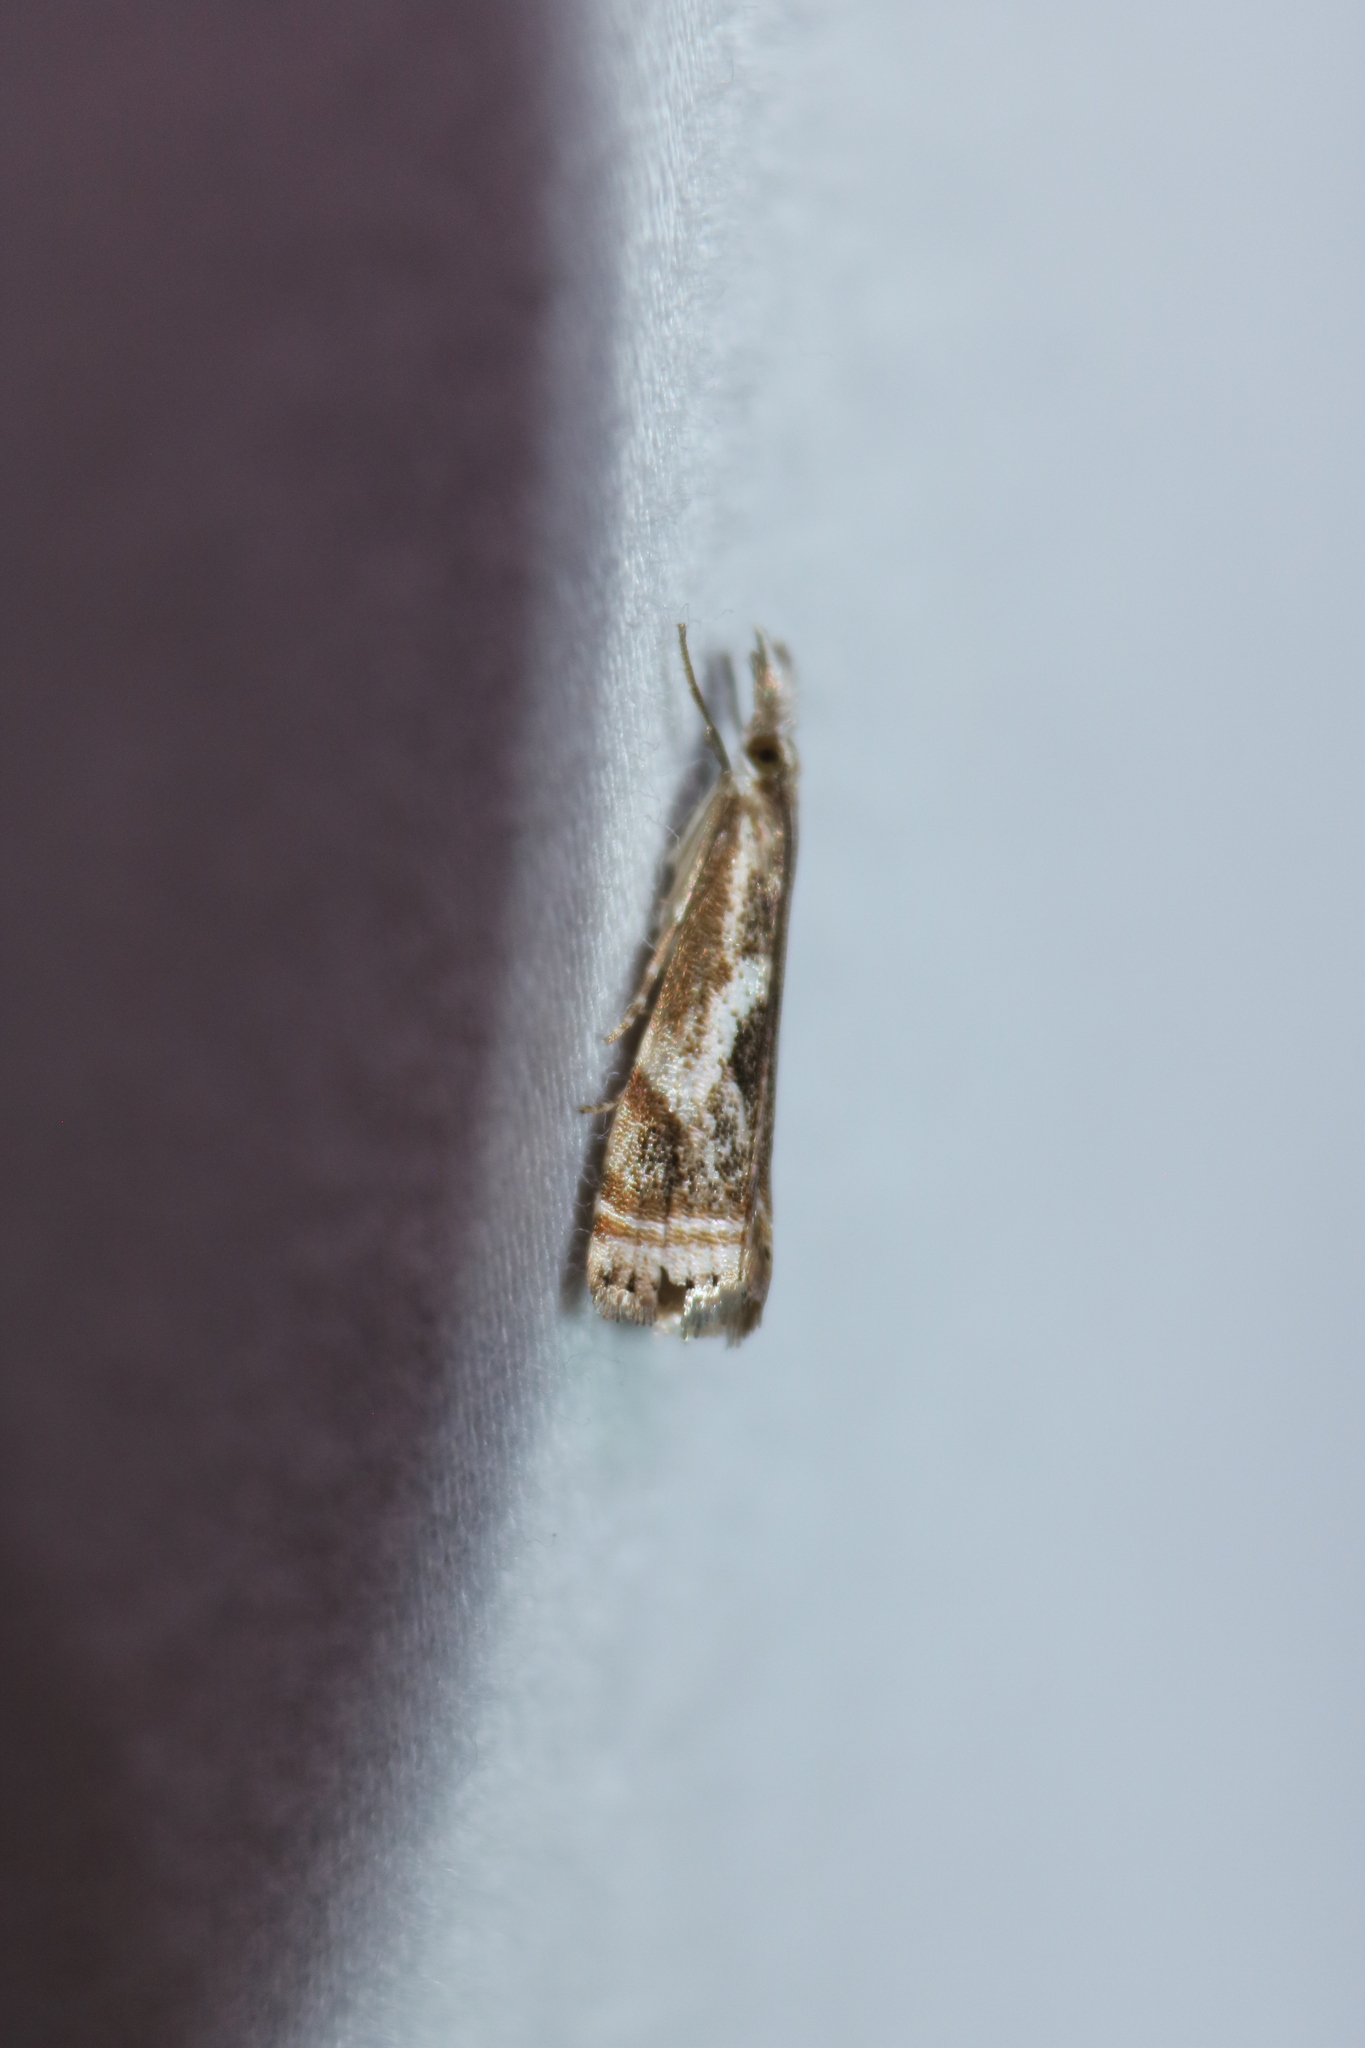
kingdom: Animalia
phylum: Arthropoda
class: Insecta
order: Lepidoptera
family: Crambidae
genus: Microcrambus
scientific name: Microcrambus elegans
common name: Elegant grass-veneer
